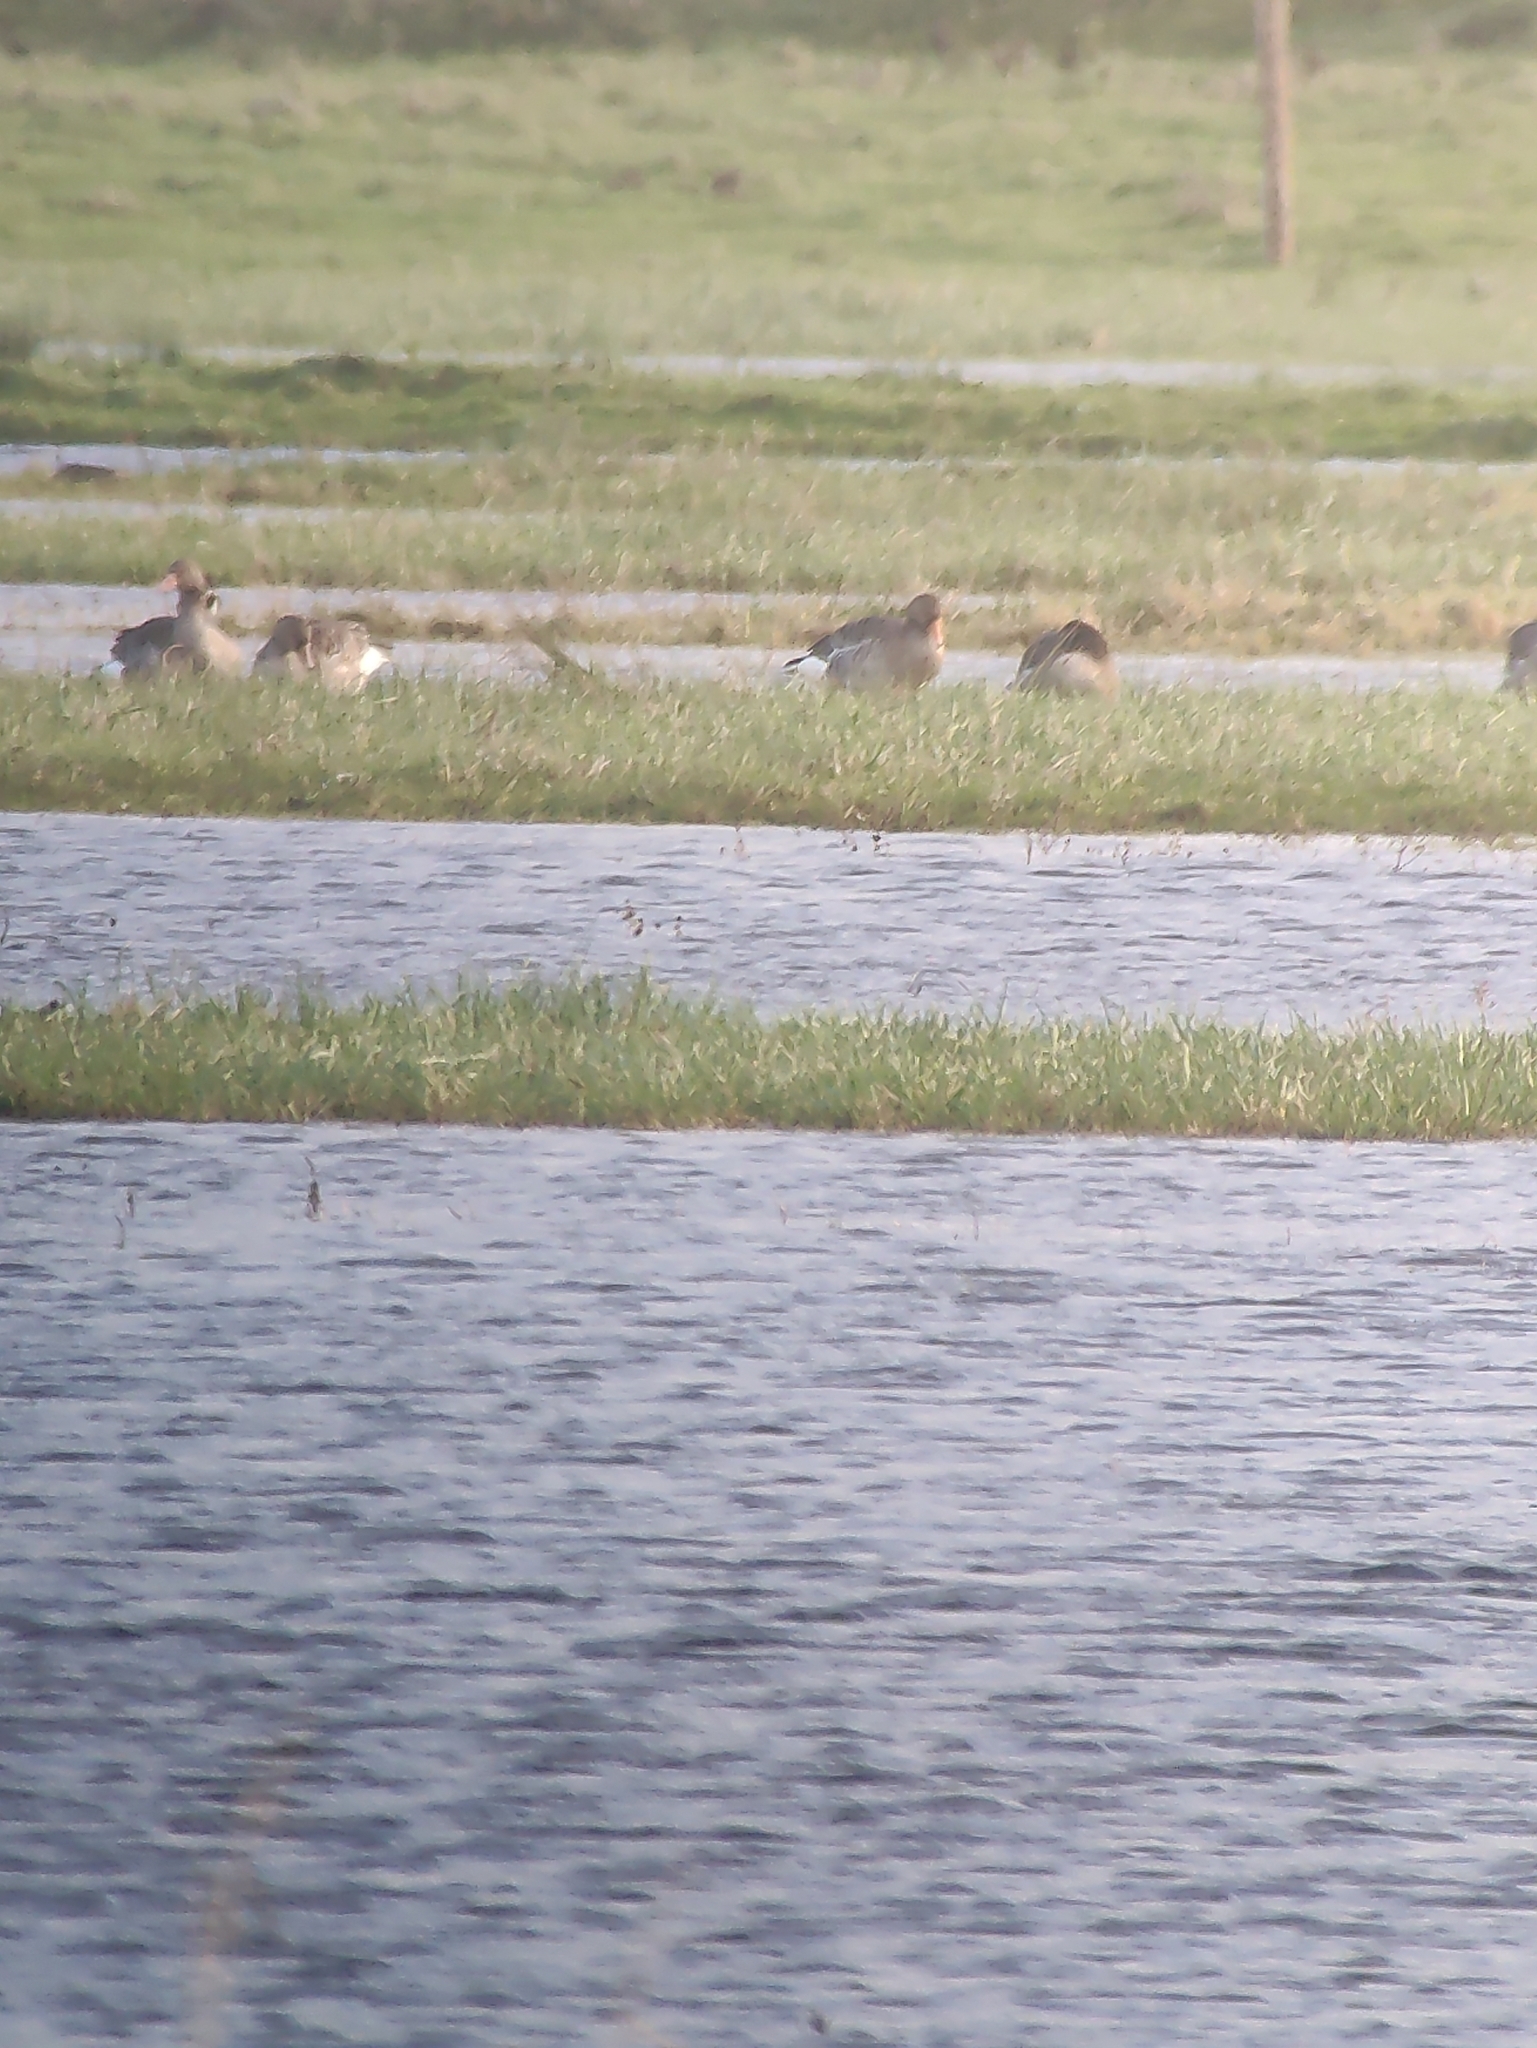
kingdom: Animalia
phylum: Chordata
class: Aves
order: Anseriformes
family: Anatidae
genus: Anser
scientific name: Anser anser
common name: Greylag goose
